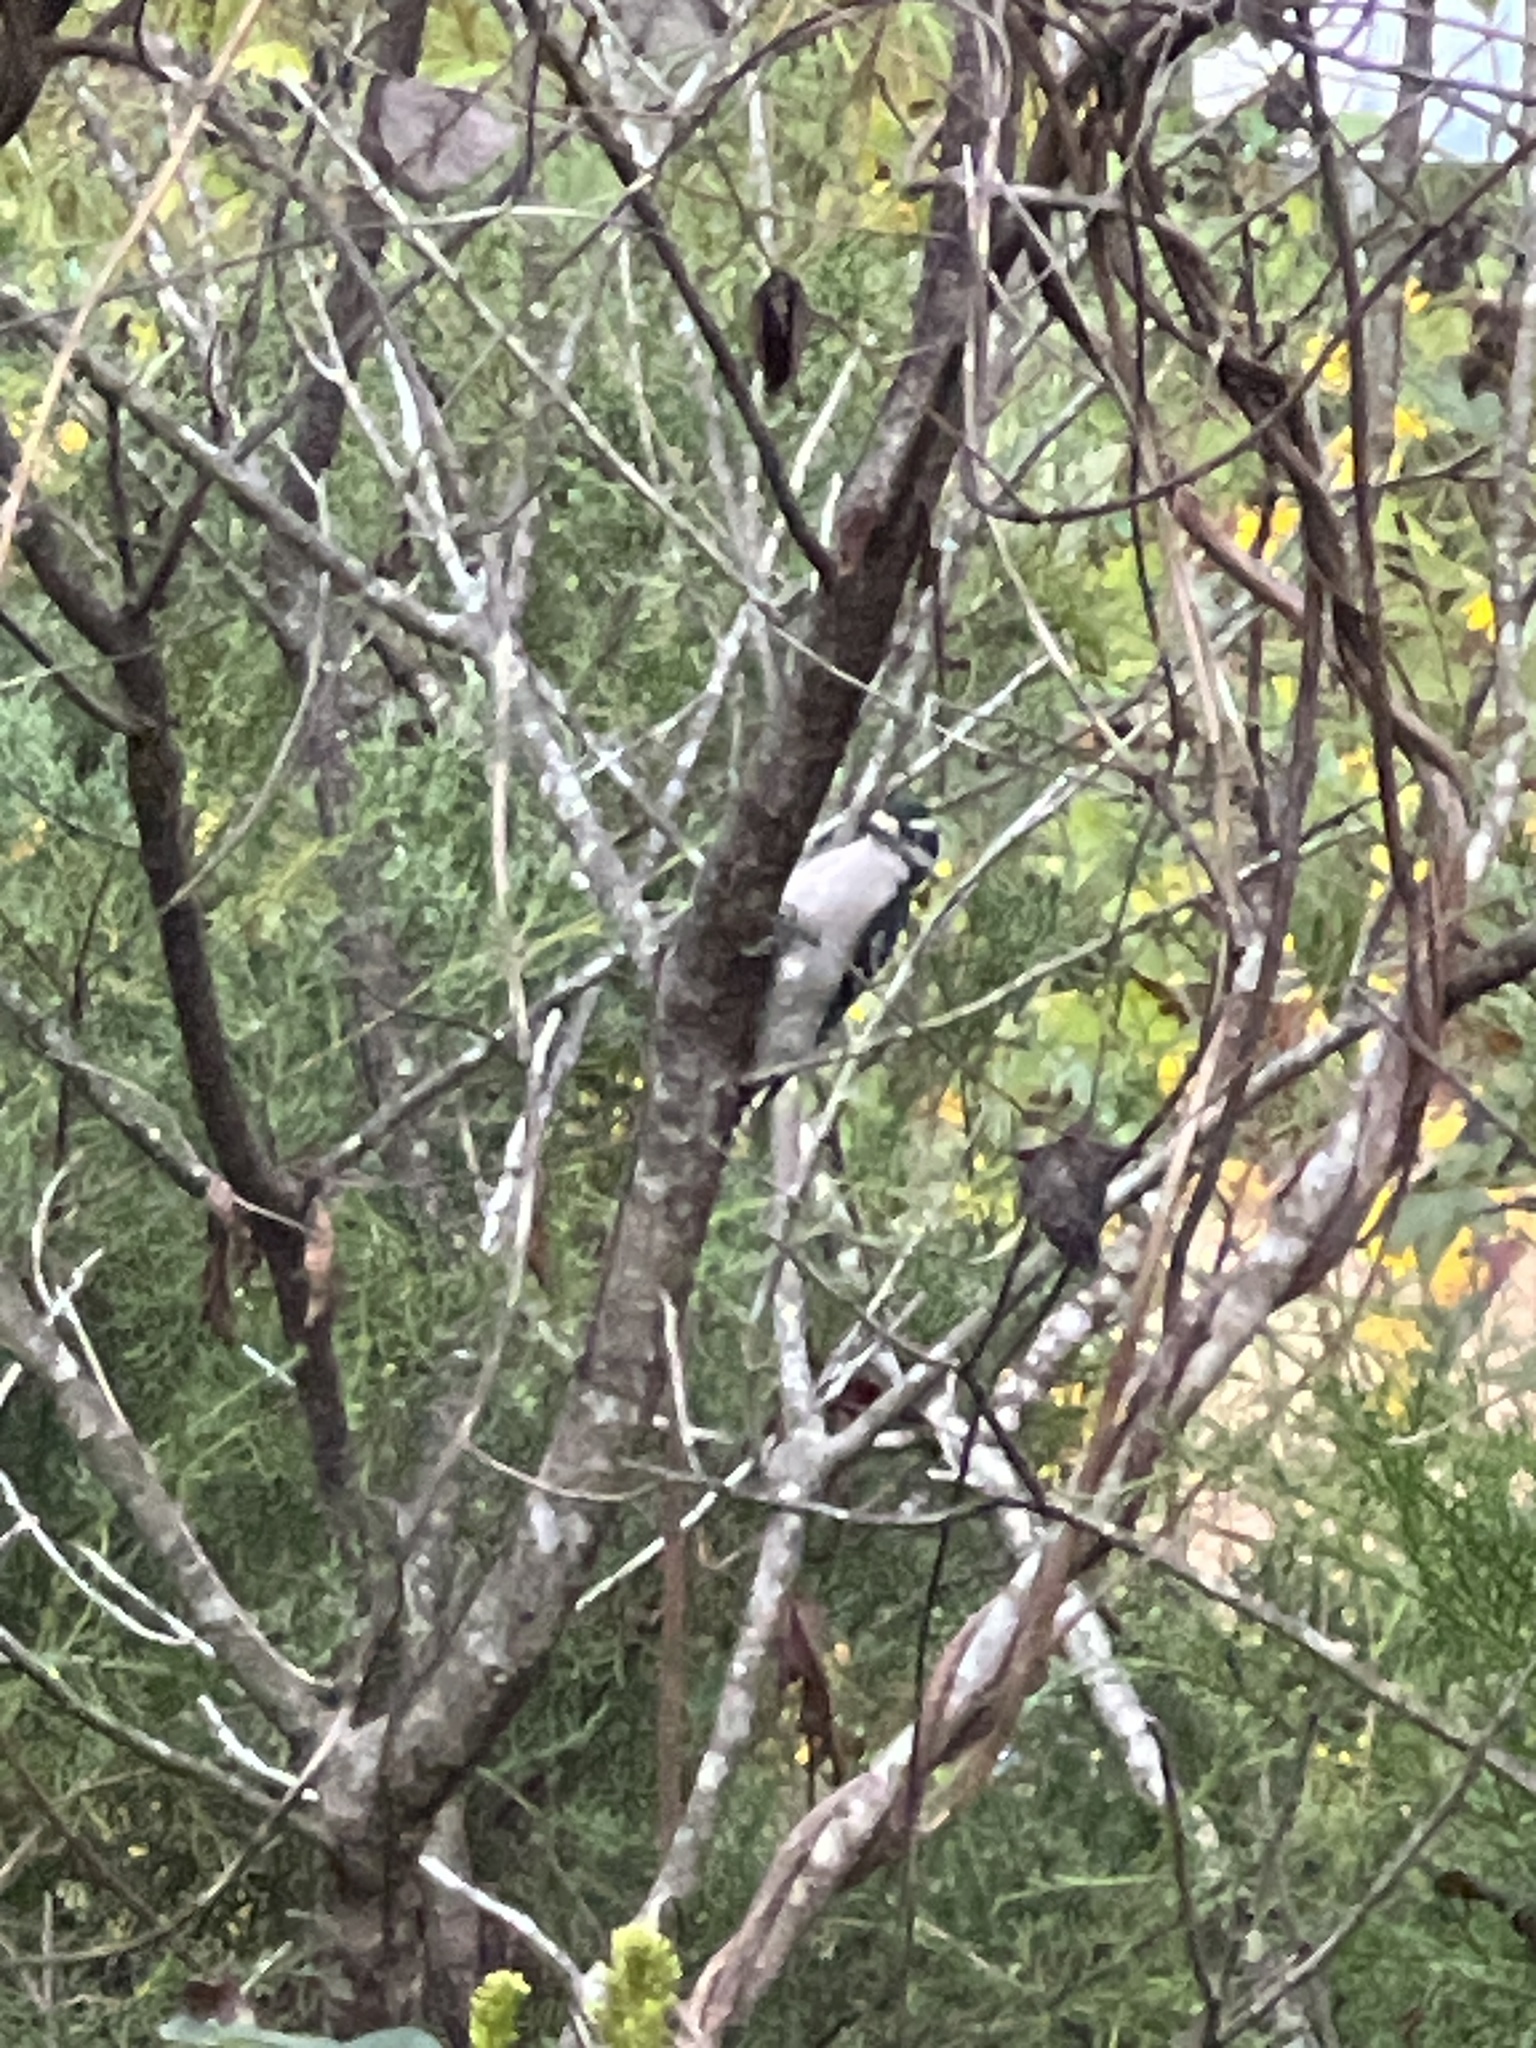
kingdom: Animalia
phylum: Chordata
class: Aves
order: Piciformes
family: Picidae
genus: Dryobates
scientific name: Dryobates pubescens
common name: Downy woodpecker
